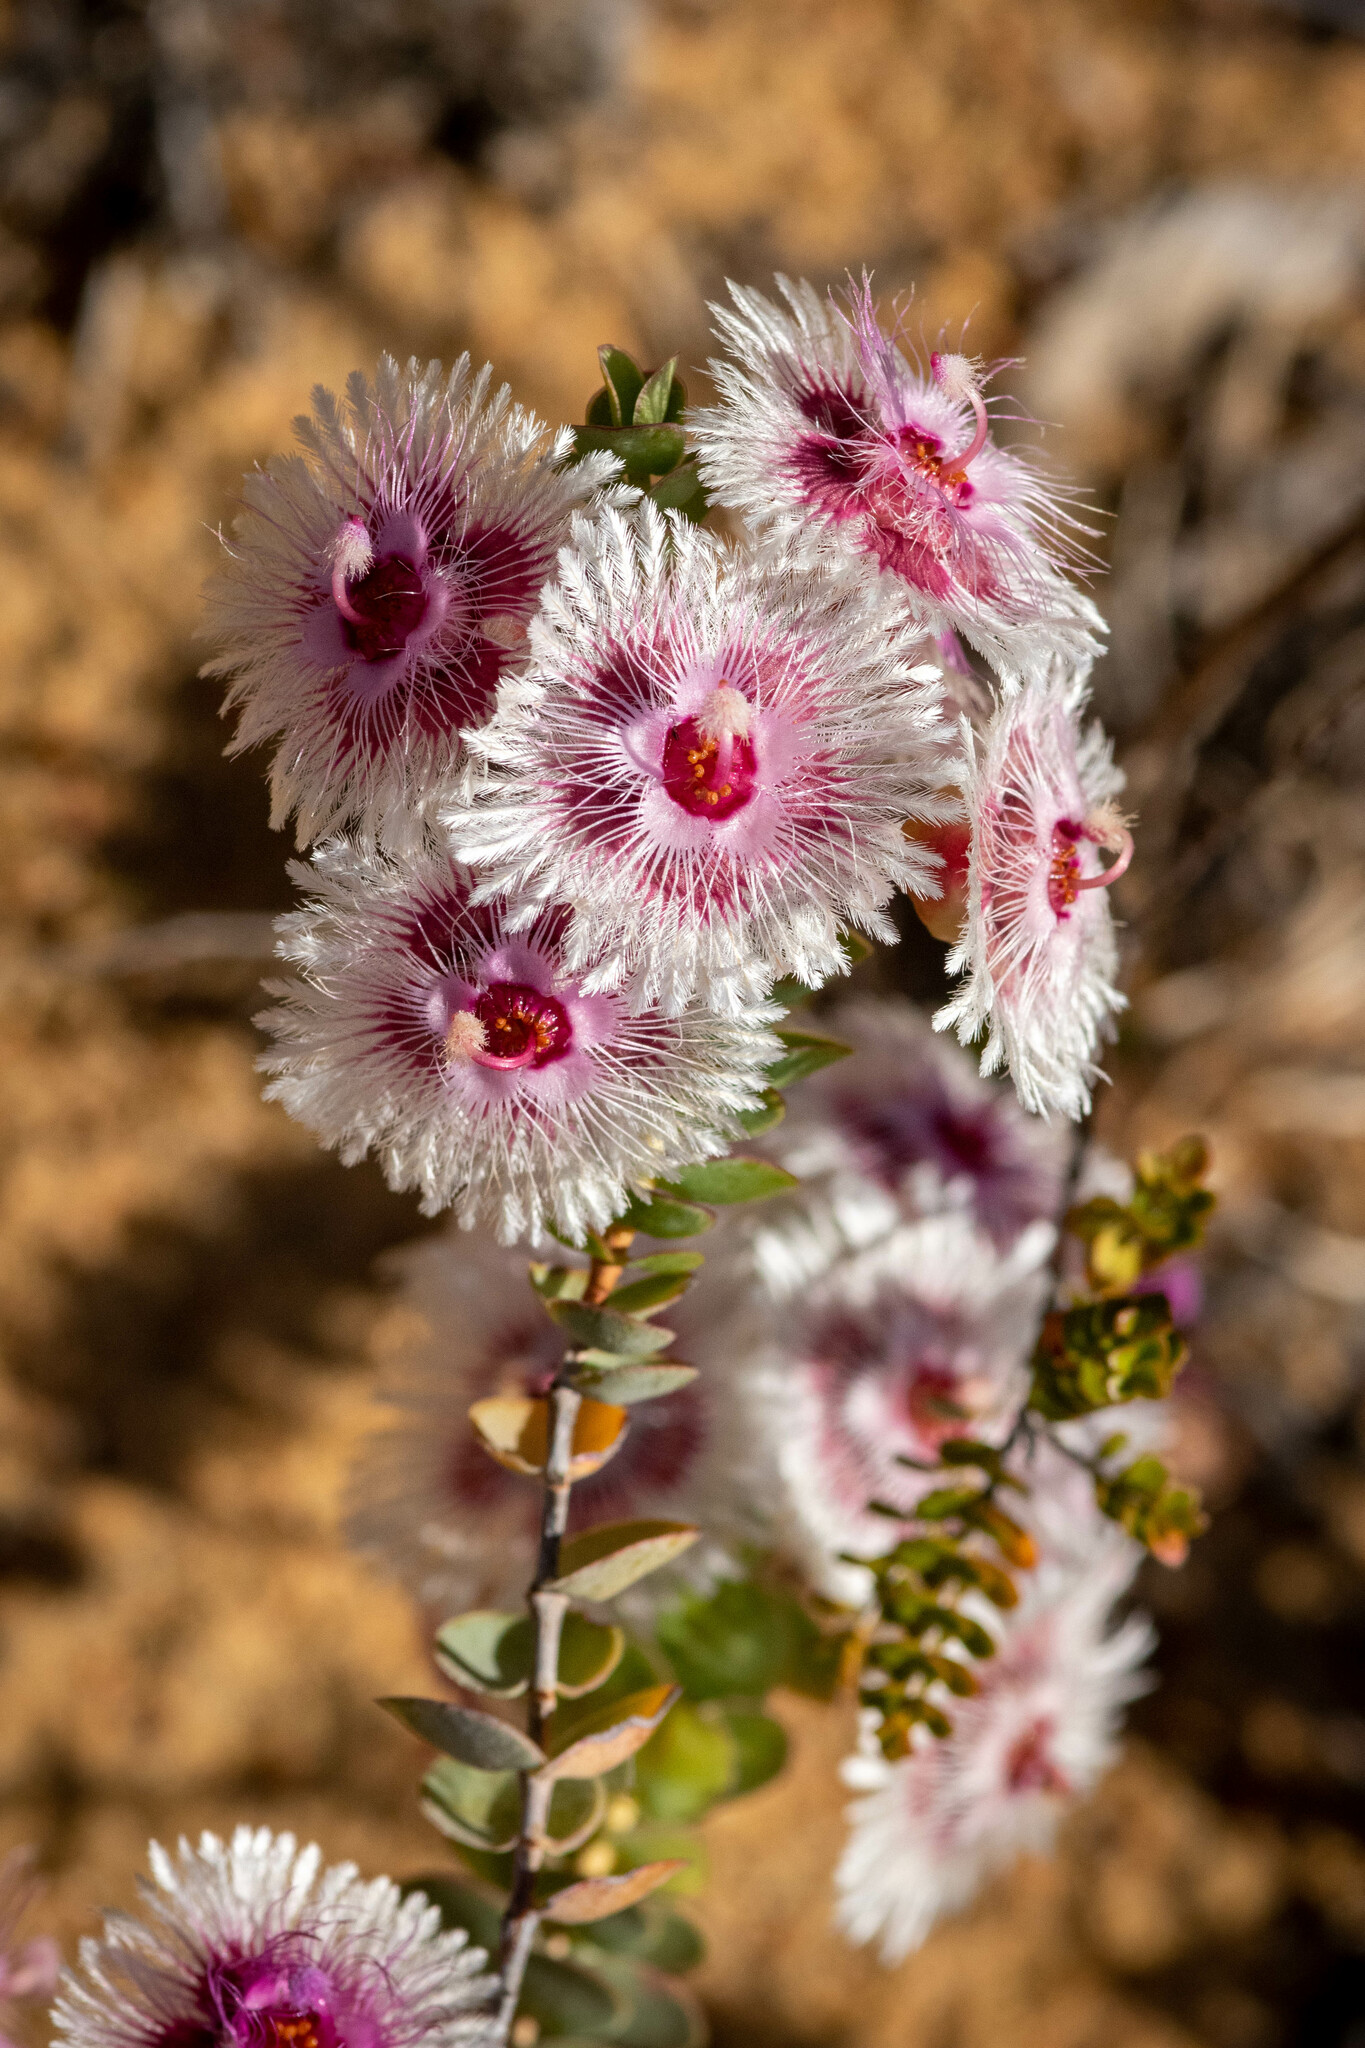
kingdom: Plantae
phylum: Tracheophyta
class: Magnoliopsida
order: Myrtales
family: Myrtaceae
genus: Verticordia
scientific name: Verticordia oculata
